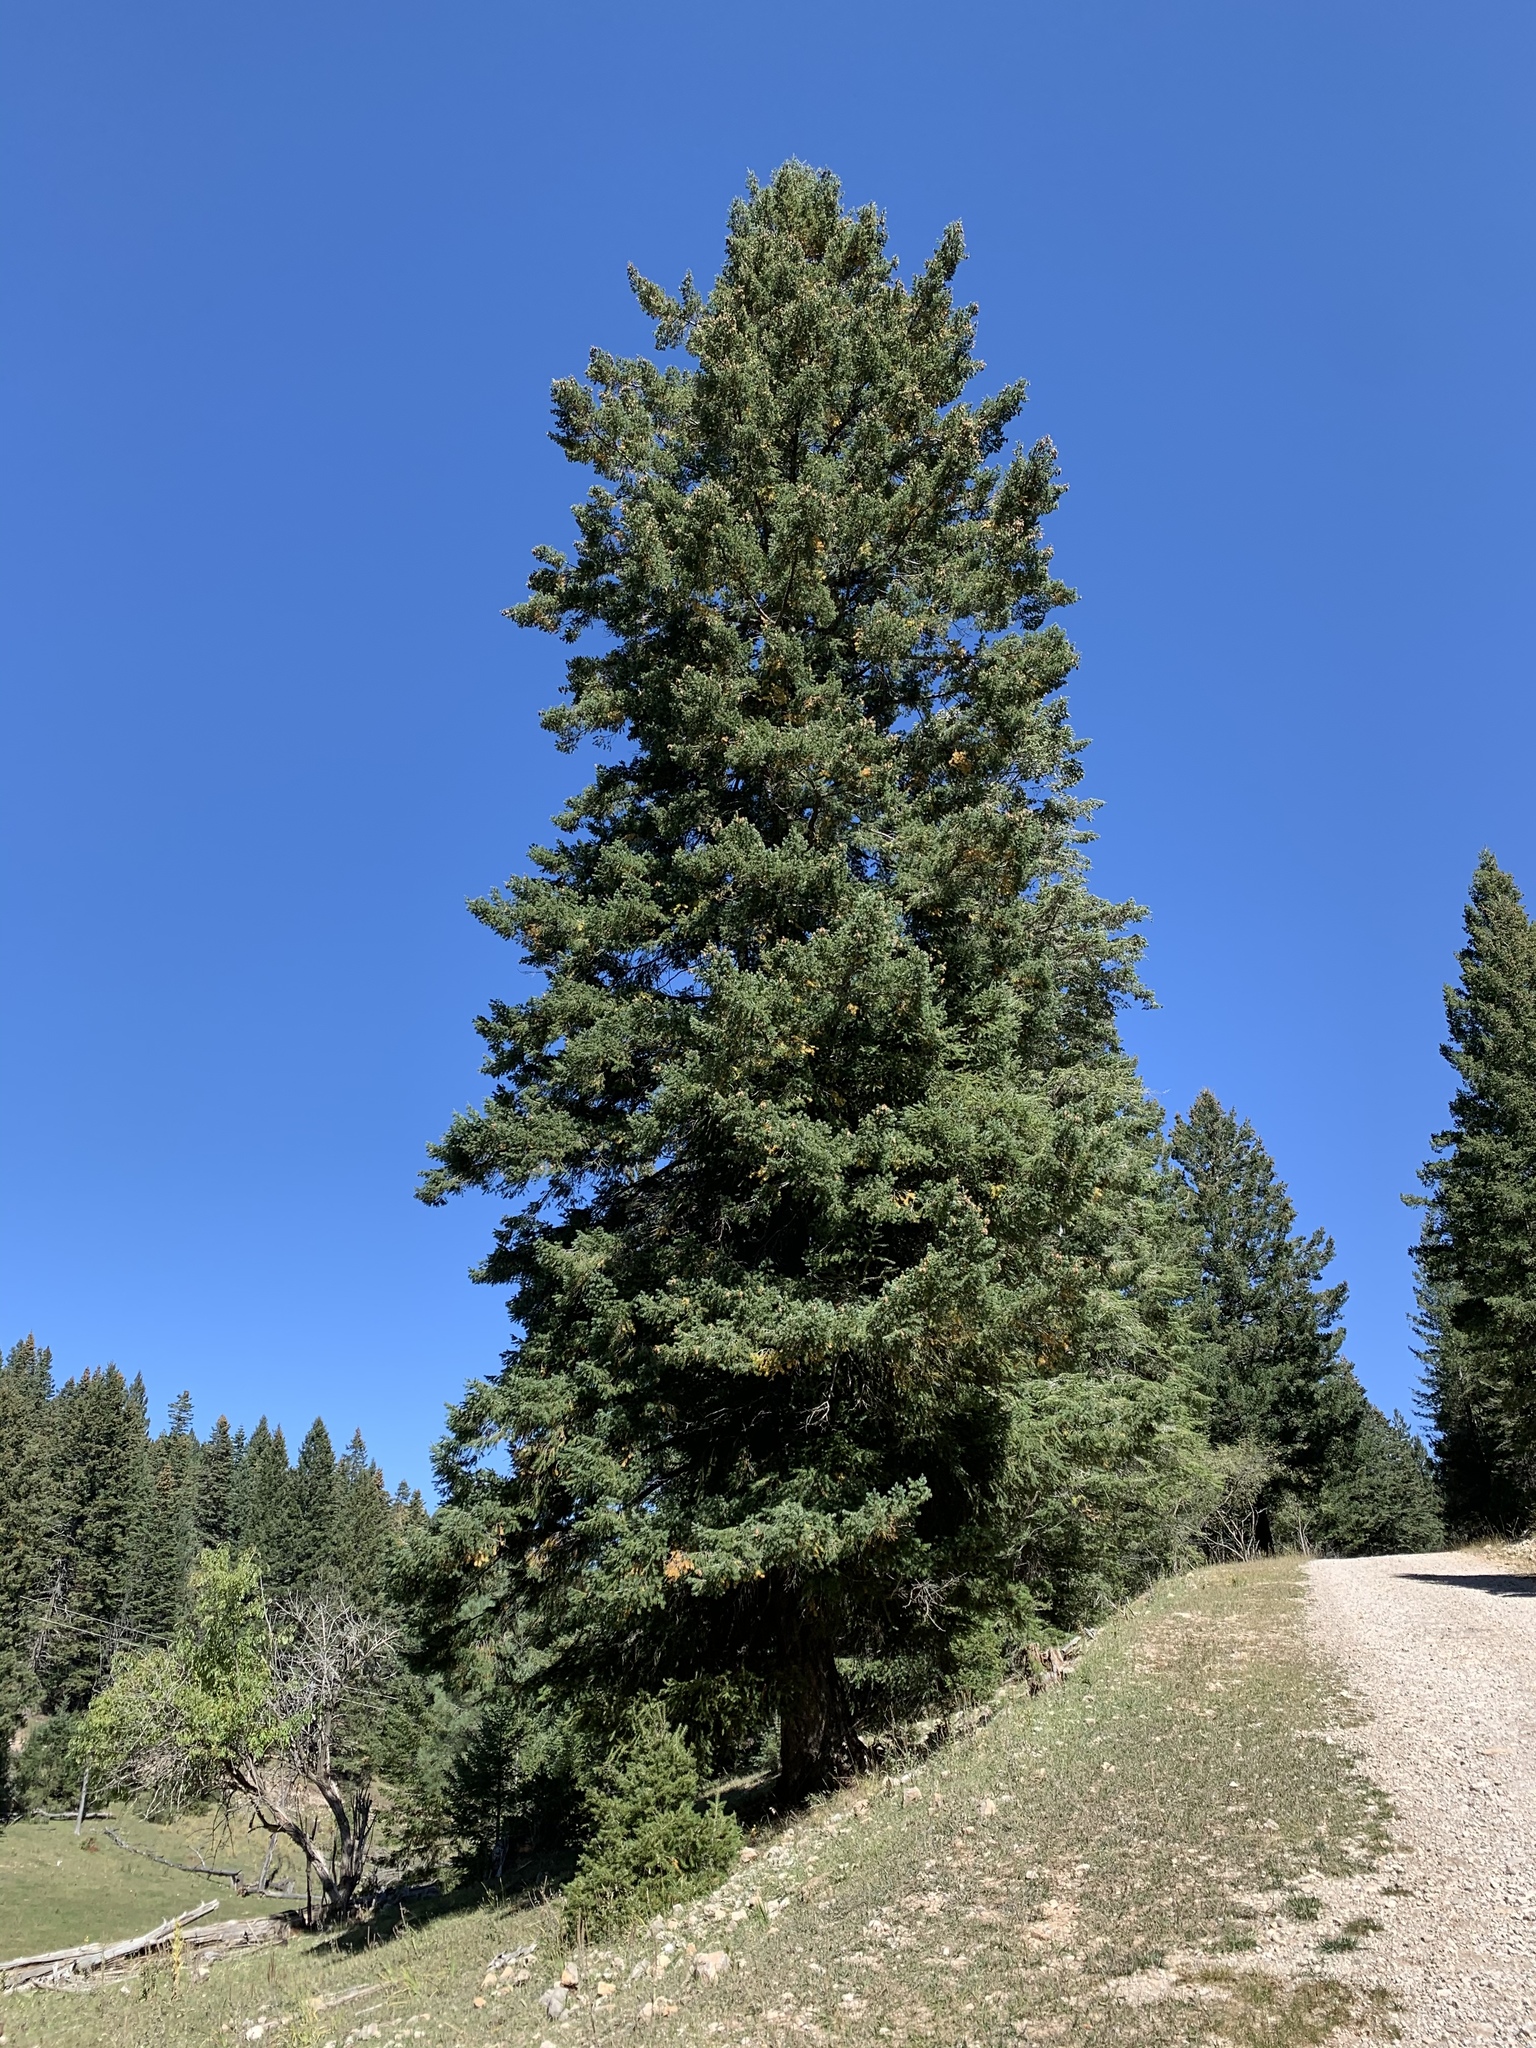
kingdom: Plantae
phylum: Tracheophyta
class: Pinopsida
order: Pinales
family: Pinaceae
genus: Picea
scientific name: Picea engelmannii
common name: Engelmann spruce
